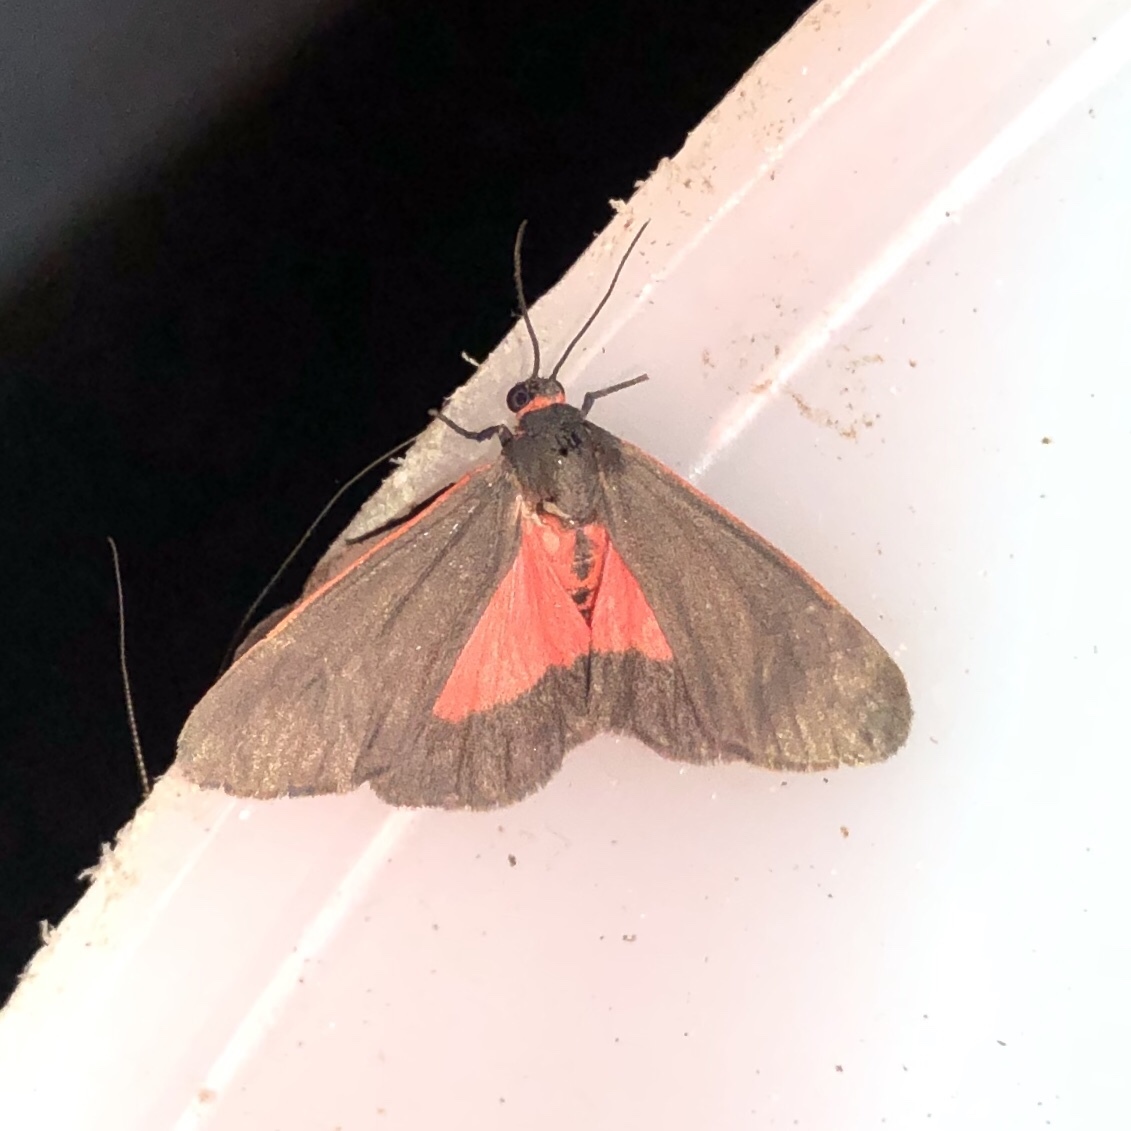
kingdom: Animalia
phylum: Arthropoda
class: Insecta
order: Lepidoptera
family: Erebidae
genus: Virbia
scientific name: Virbia laeta
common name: Joyful holomelina moth
